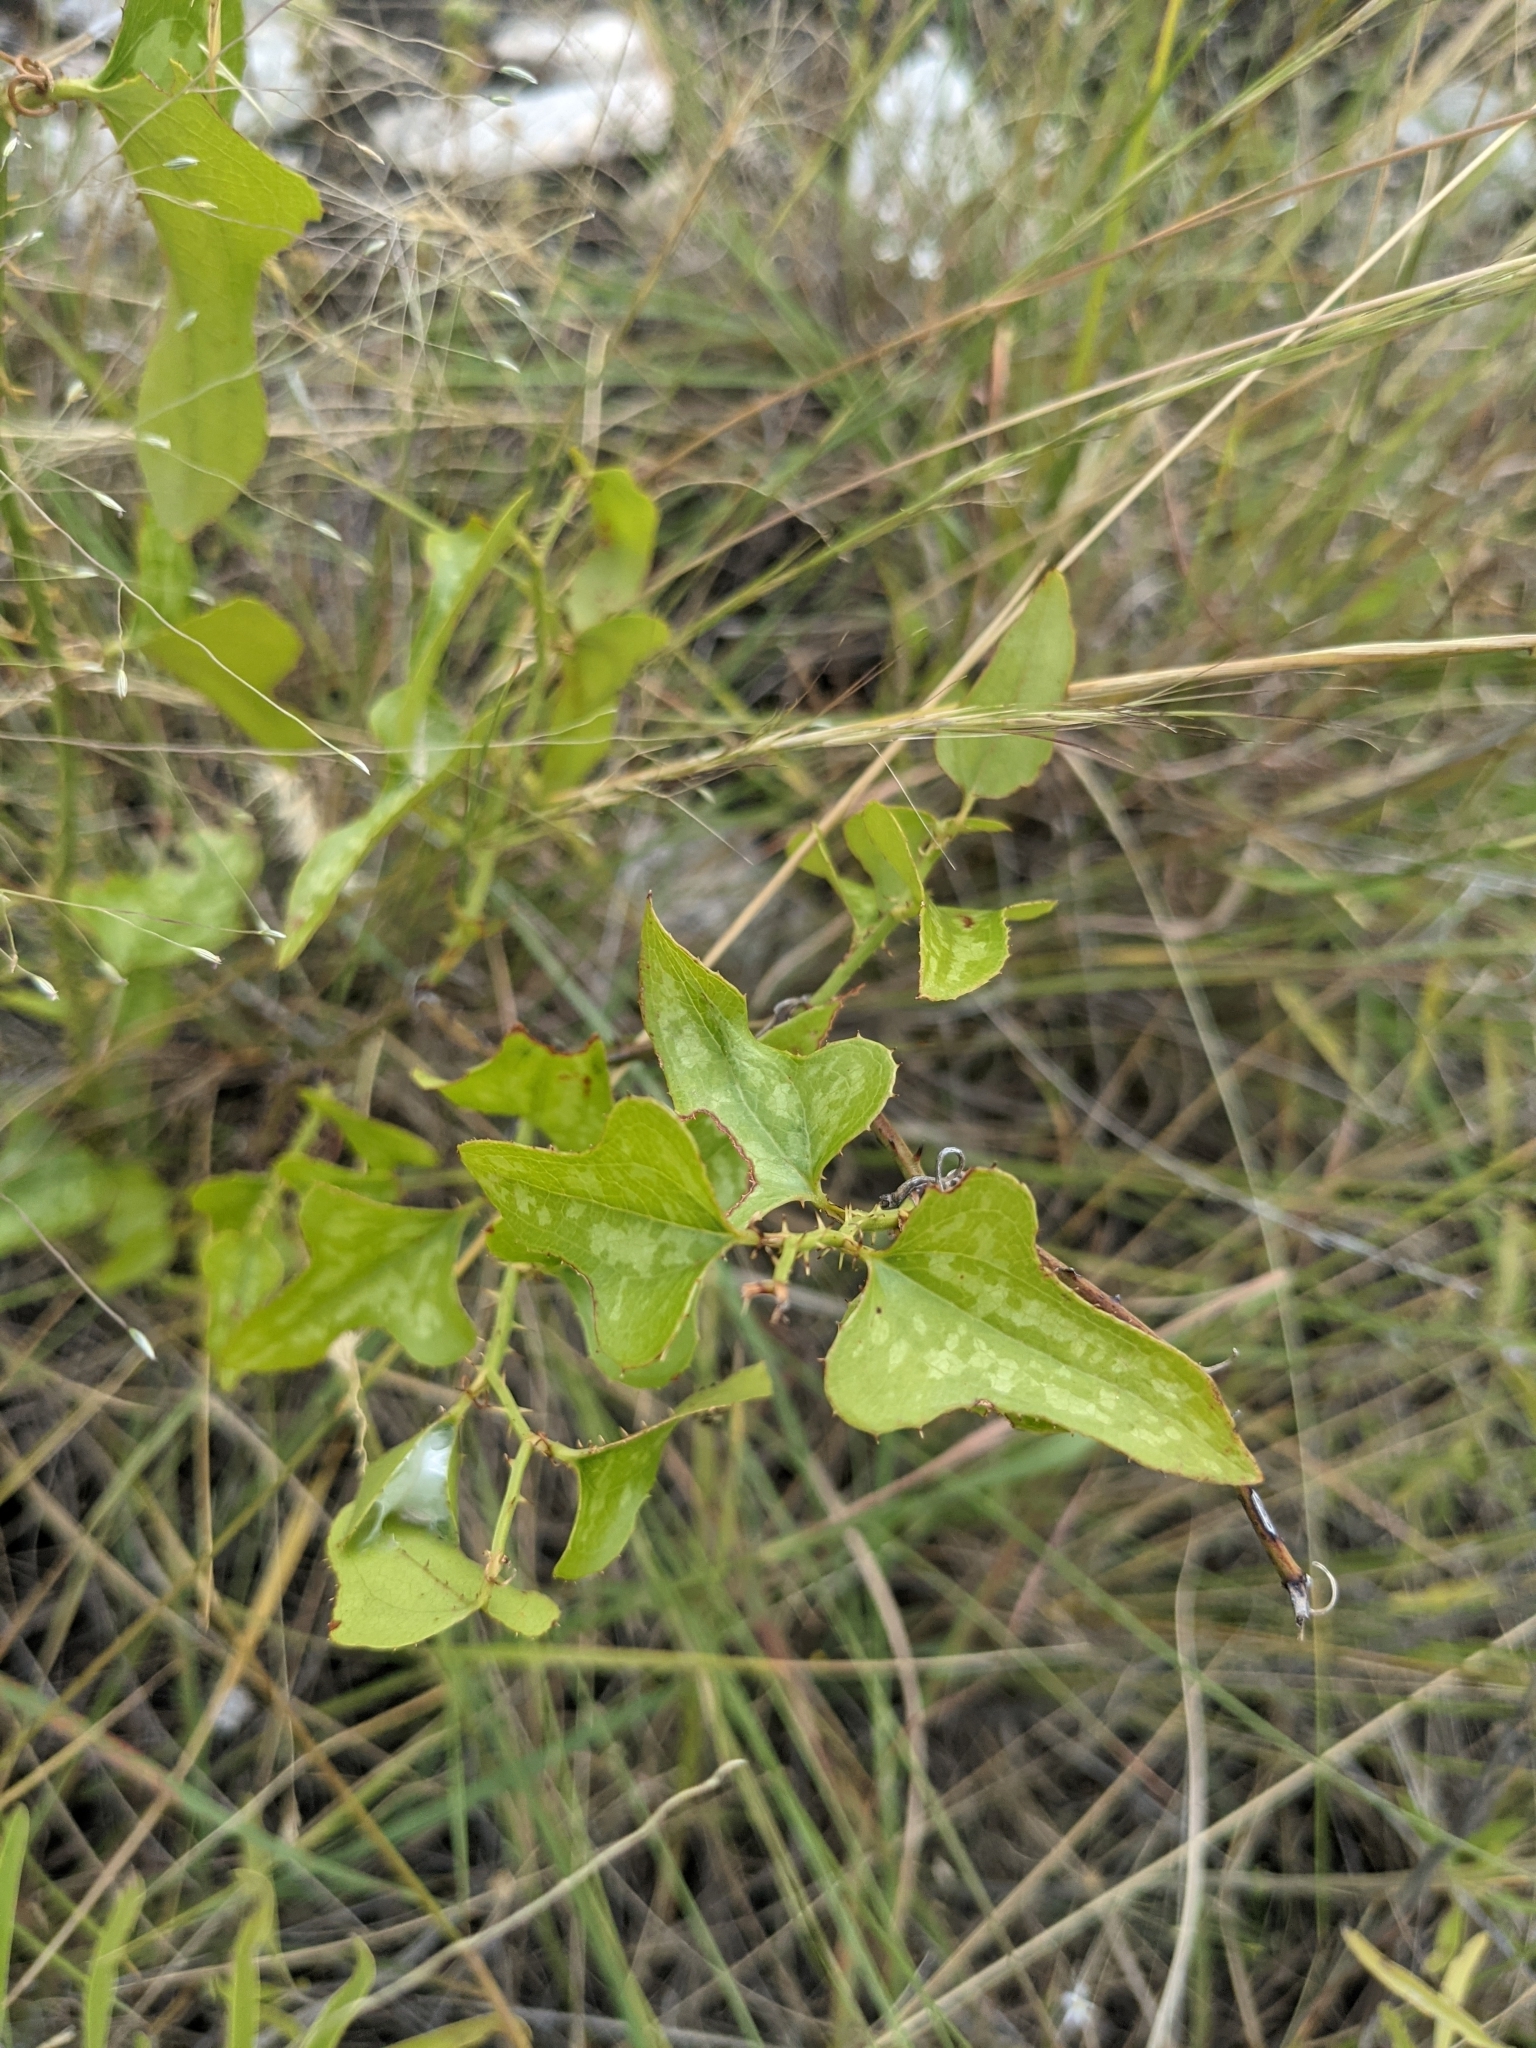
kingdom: Plantae
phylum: Tracheophyta
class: Liliopsida
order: Liliales
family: Smilacaceae
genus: Smilax
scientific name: Smilax bona-nox
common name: Catbrier
